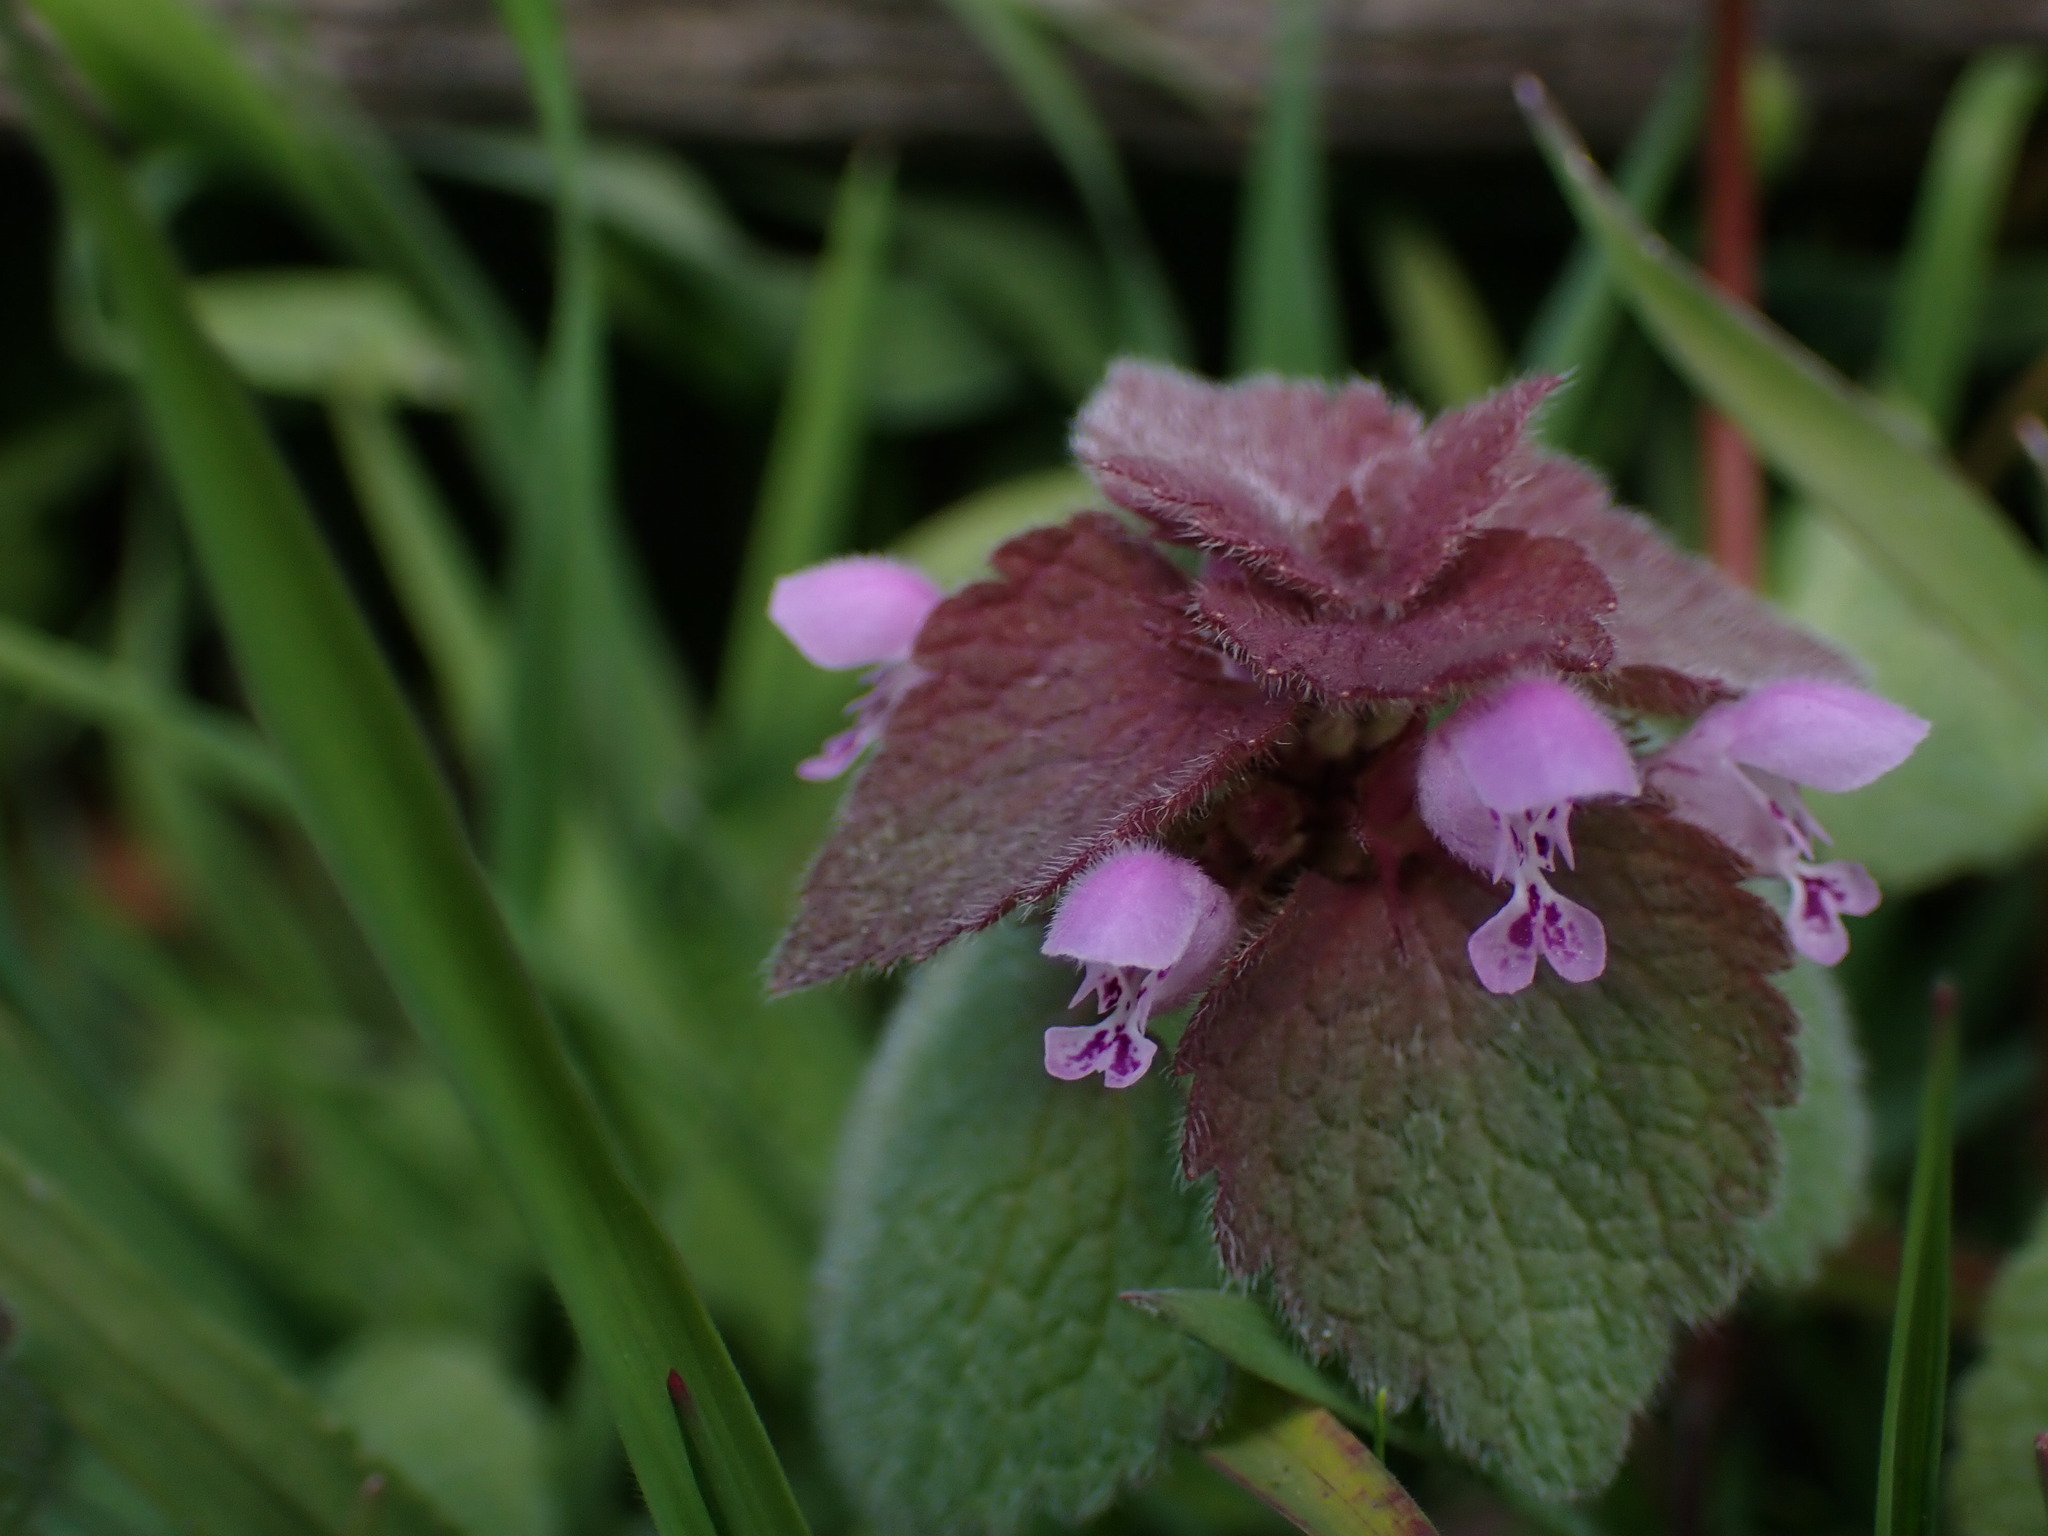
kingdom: Plantae
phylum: Tracheophyta
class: Magnoliopsida
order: Lamiales
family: Lamiaceae
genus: Lamium
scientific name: Lamium purpureum
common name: Red dead-nettle
